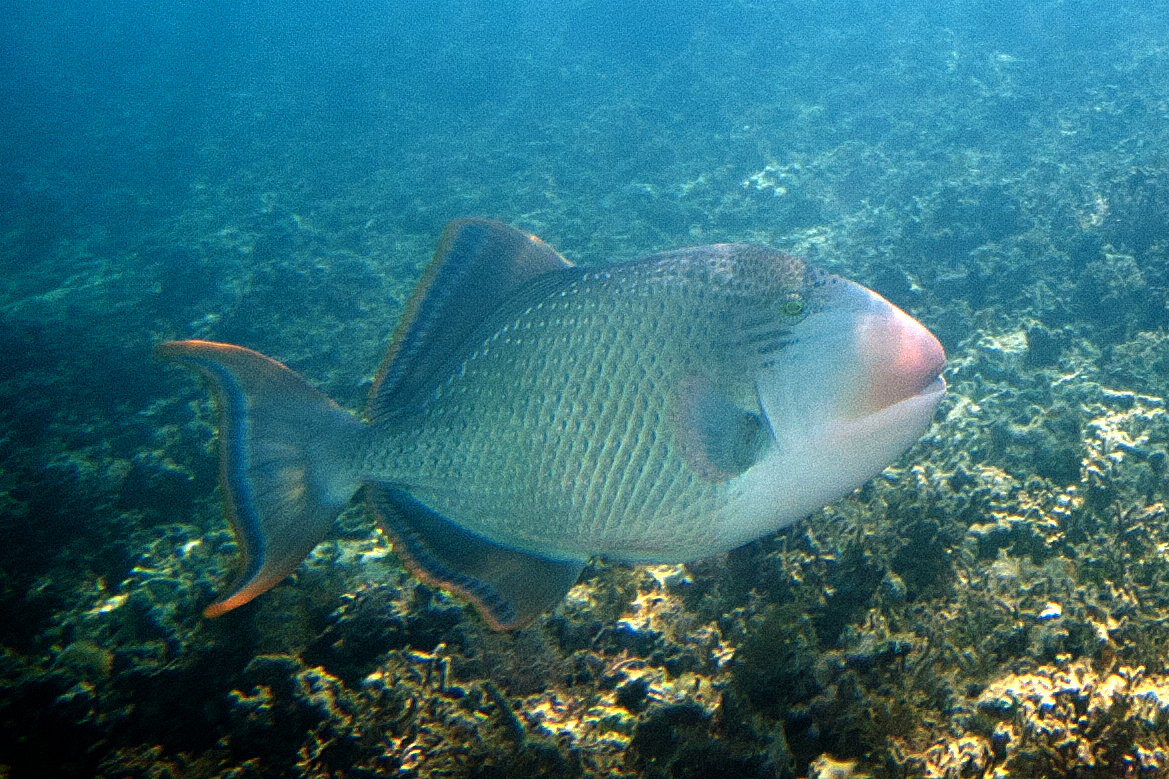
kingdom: Animalia
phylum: Chordata
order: Tetraodontiformes
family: Balistidae
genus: Pseudobalistes
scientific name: Pseudobalistes flavimarginatus
